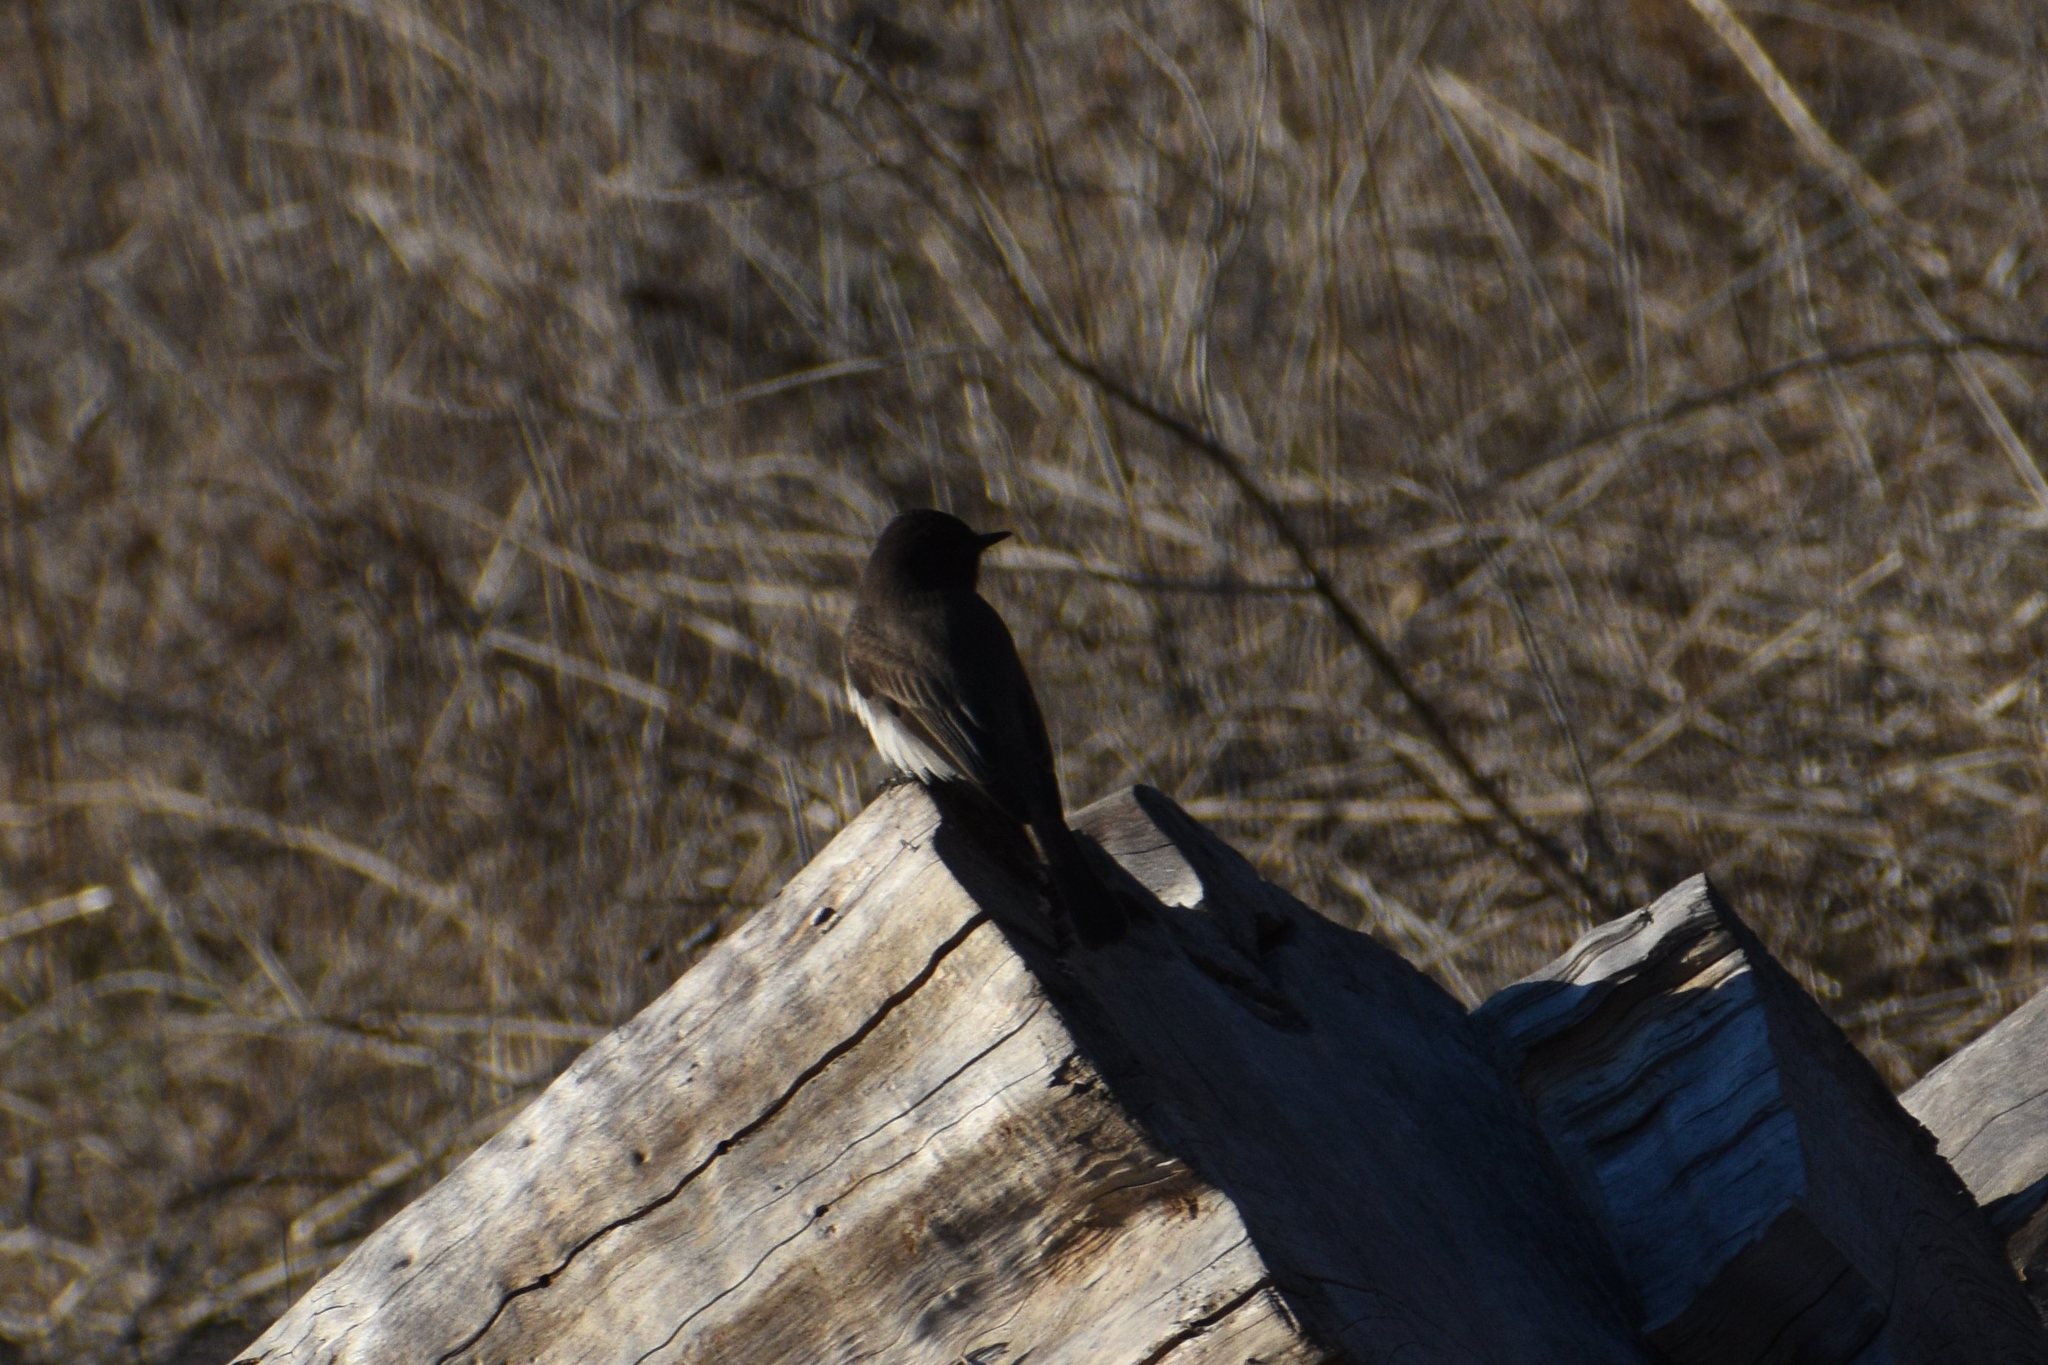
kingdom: Animalia
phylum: Chordata
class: Aves
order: Passeriformes
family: Tyrannidae
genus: Sayornis
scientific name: Sayornis nigricans
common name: Black phoebe
